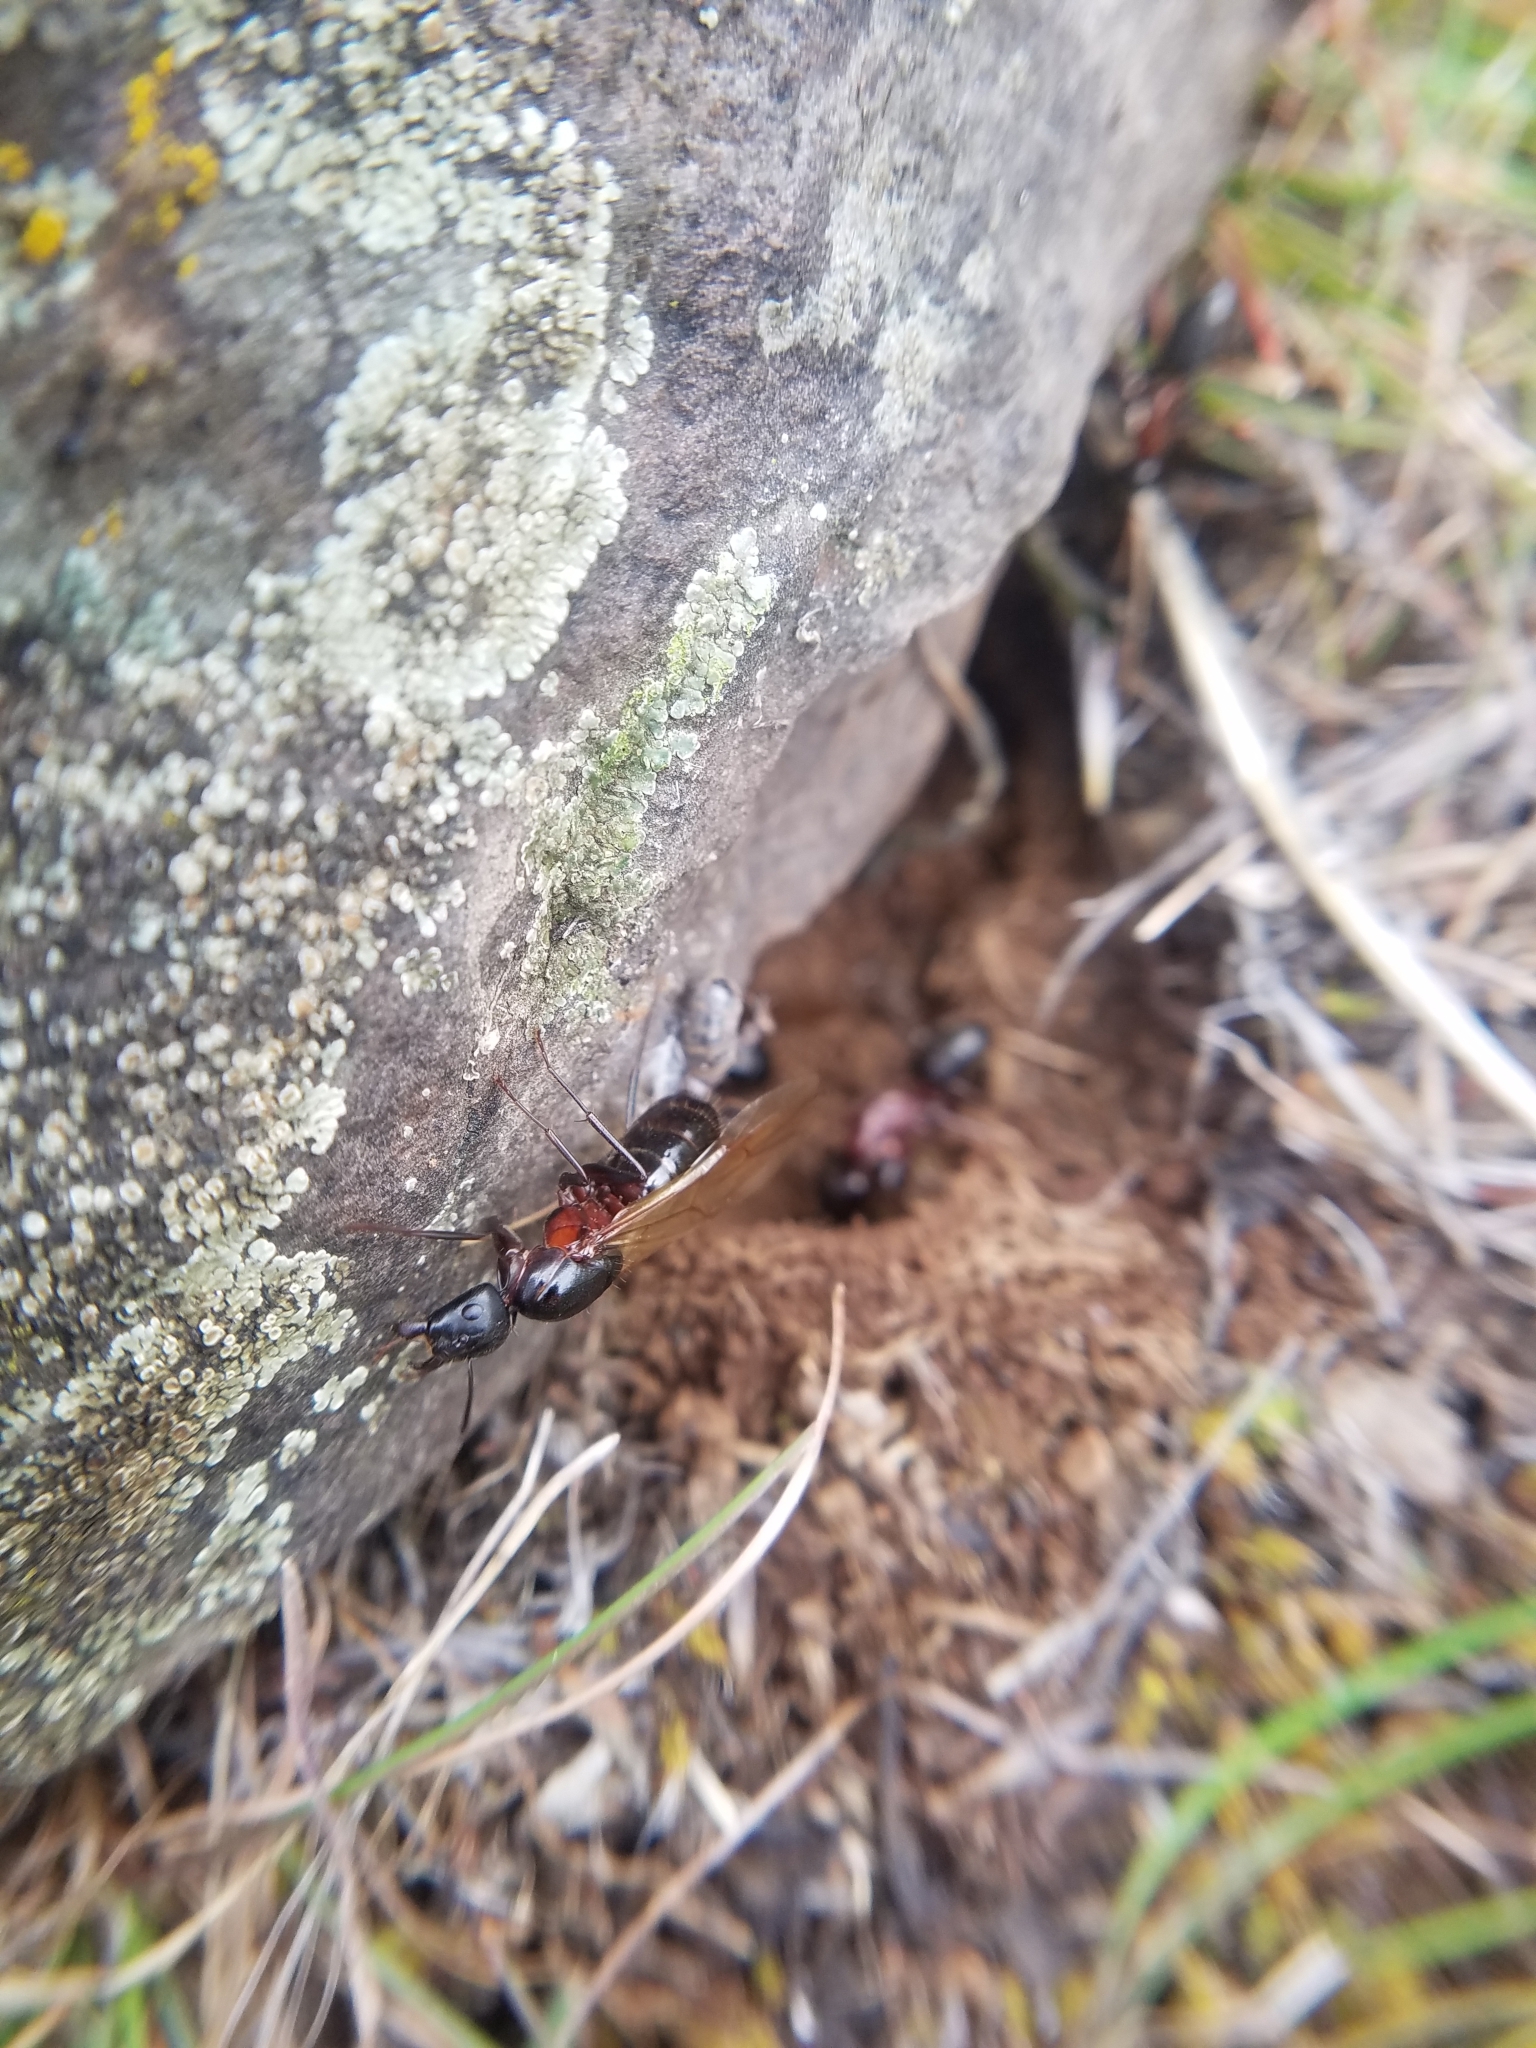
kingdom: Animalia
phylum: Arthropoda
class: Insecta
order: Hymenoptera
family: Formicidae
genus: Camponotus
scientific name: Camponotus vicinus
